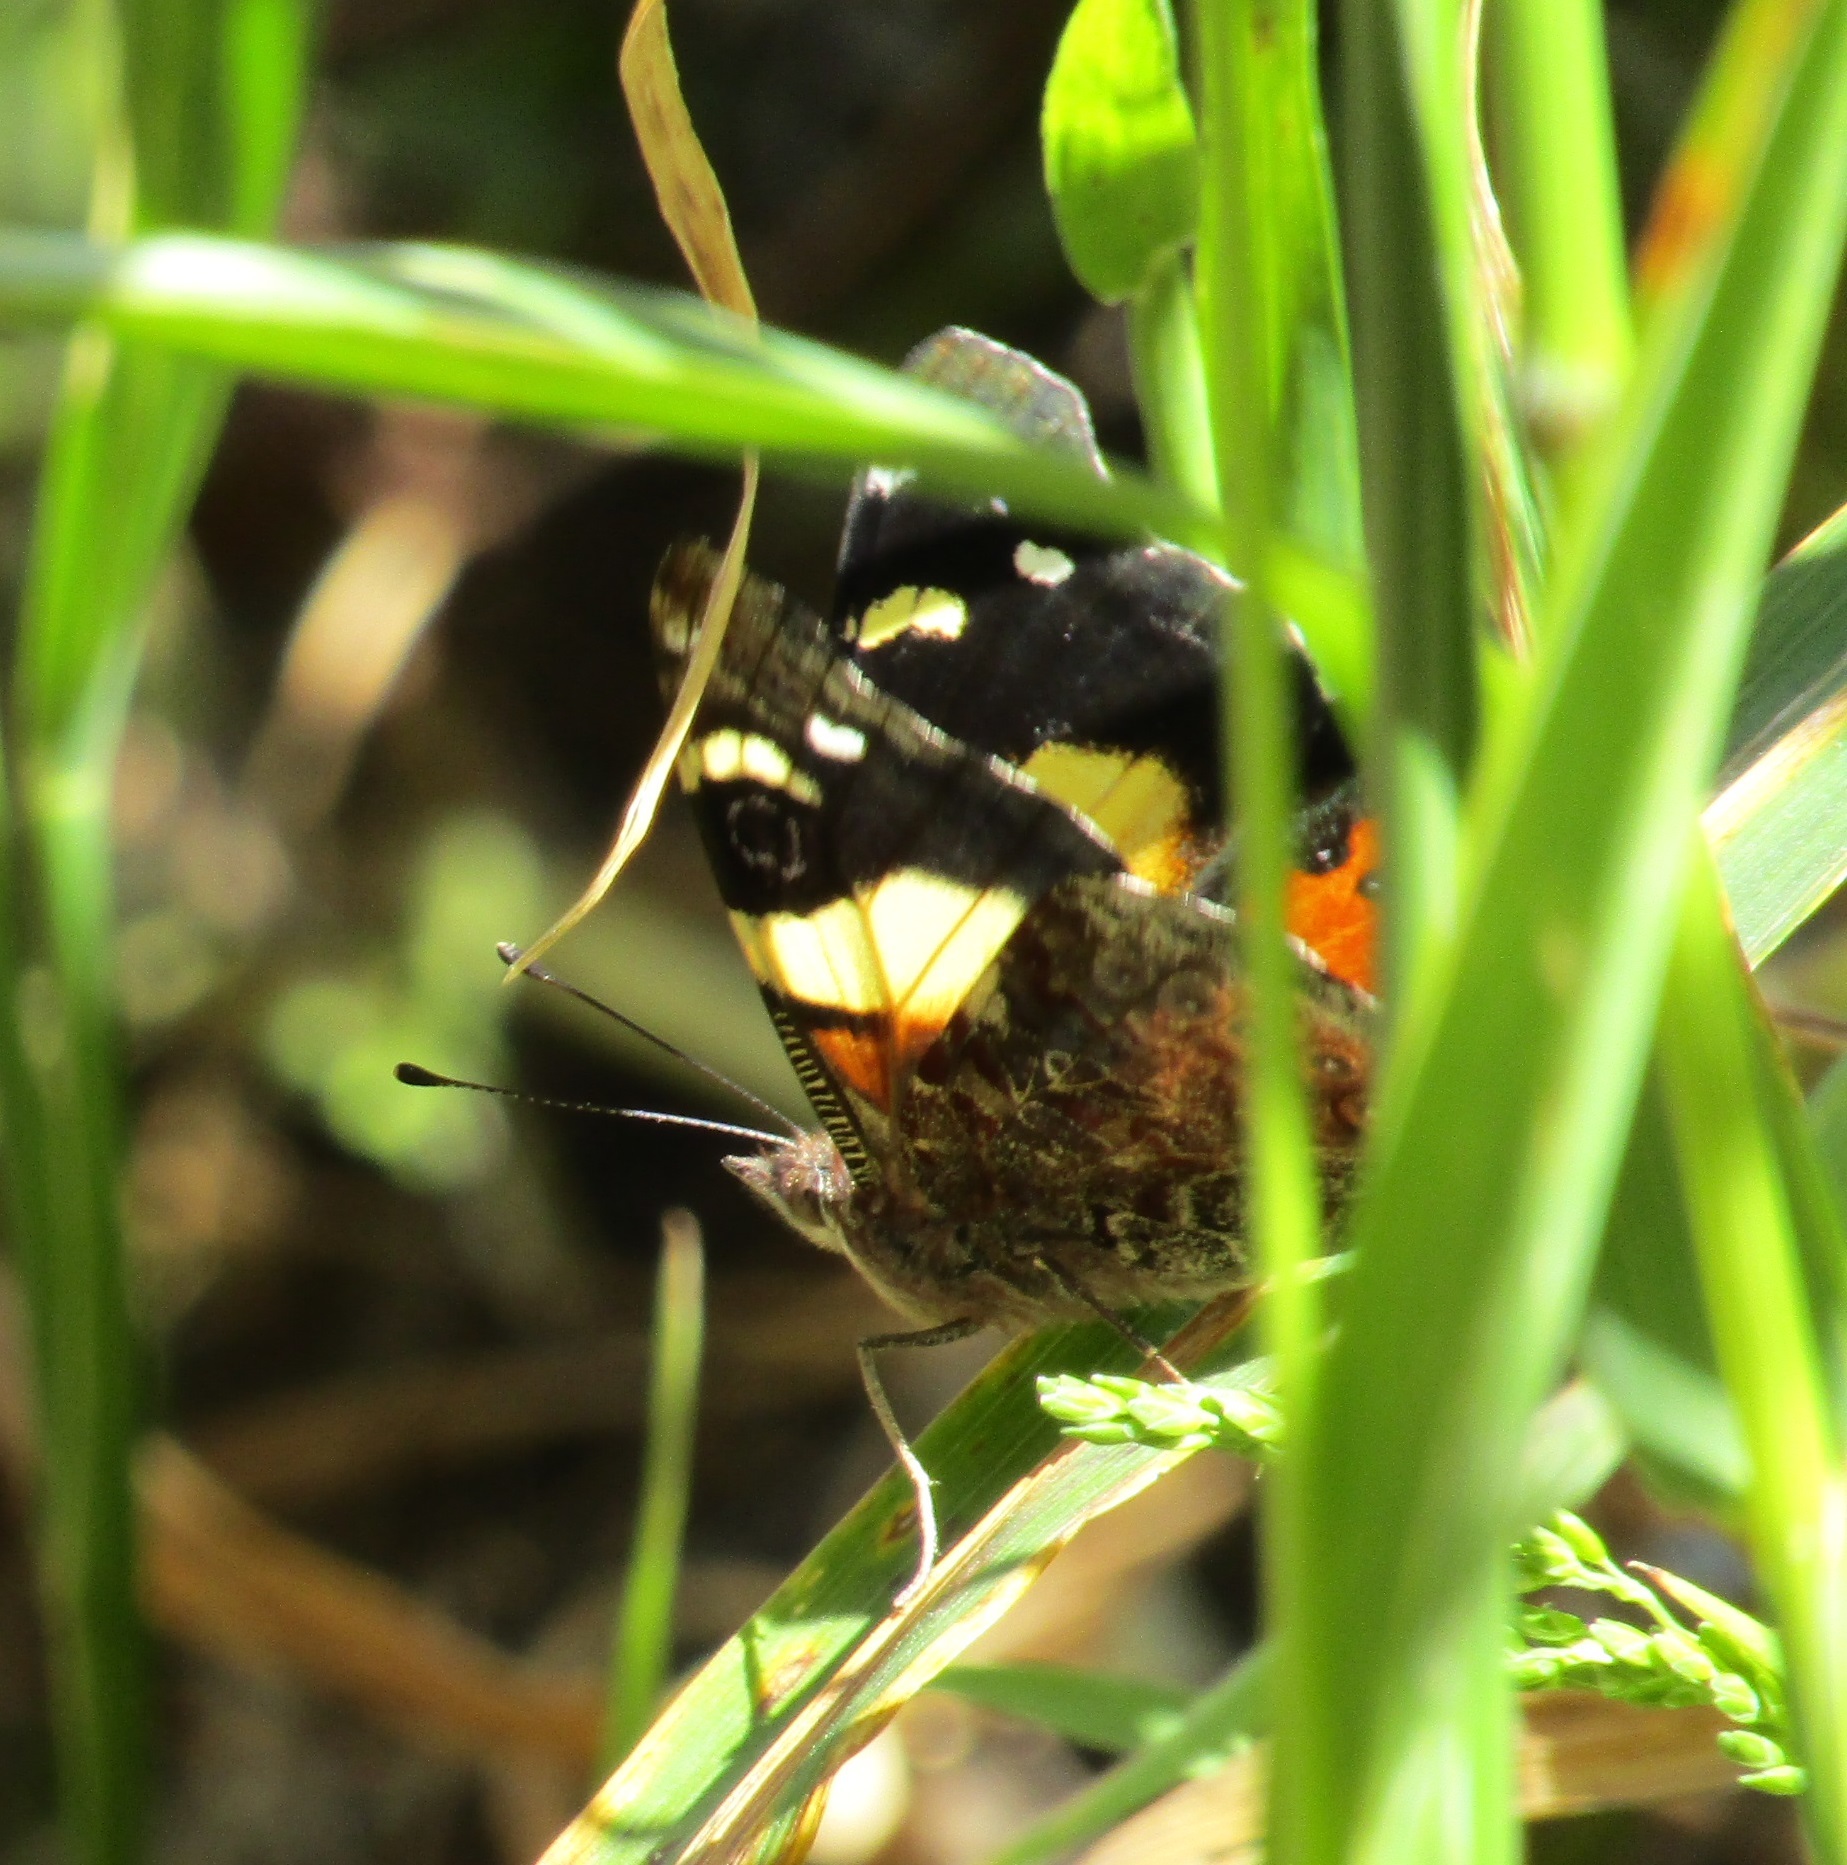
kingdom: Animalia
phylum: Arthropoda
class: Insecta
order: Lepidoptera
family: Nymphalidae
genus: Vanessa
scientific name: Vanessa itea
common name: Yellow admiral
